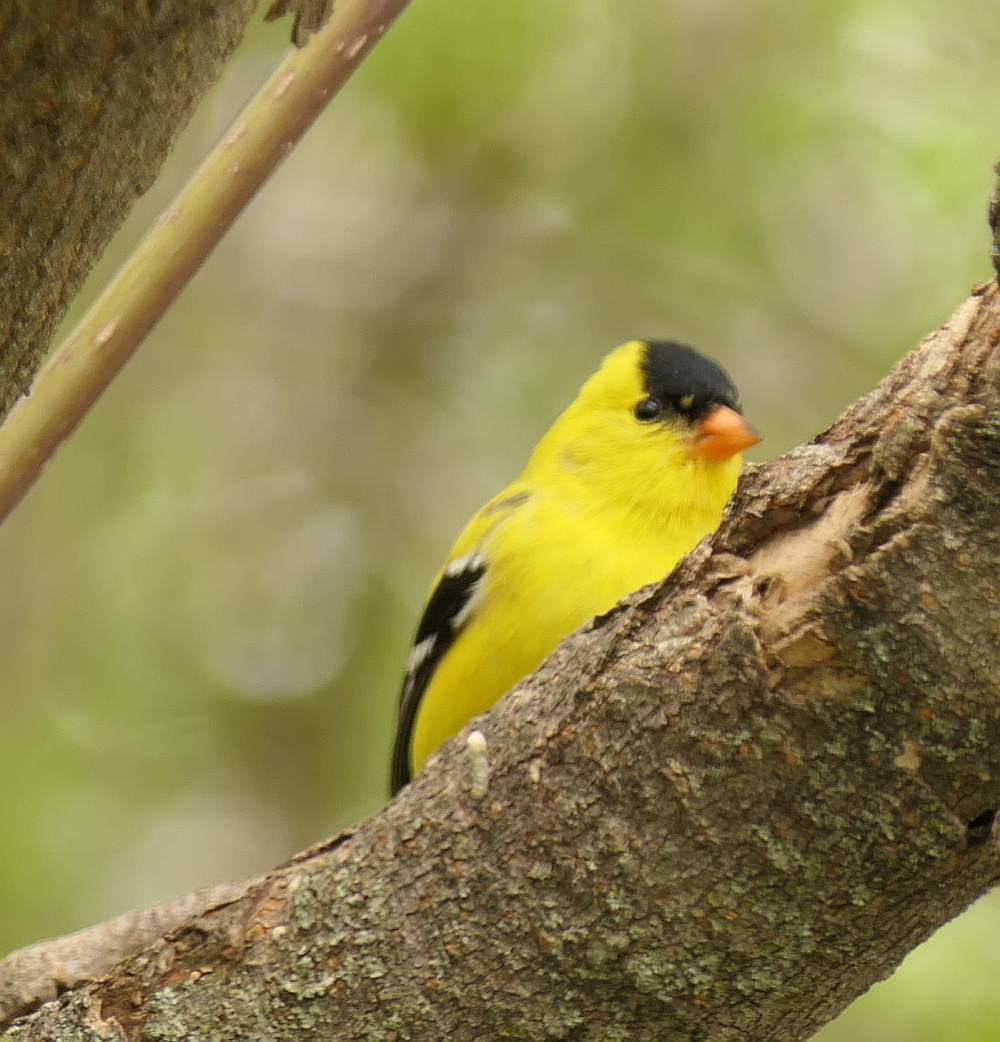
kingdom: Animalia
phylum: Chordata
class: Aves
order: Passeriformes
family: Fringillidae
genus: Spinus
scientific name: Spinus tristis
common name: American goldfinch
